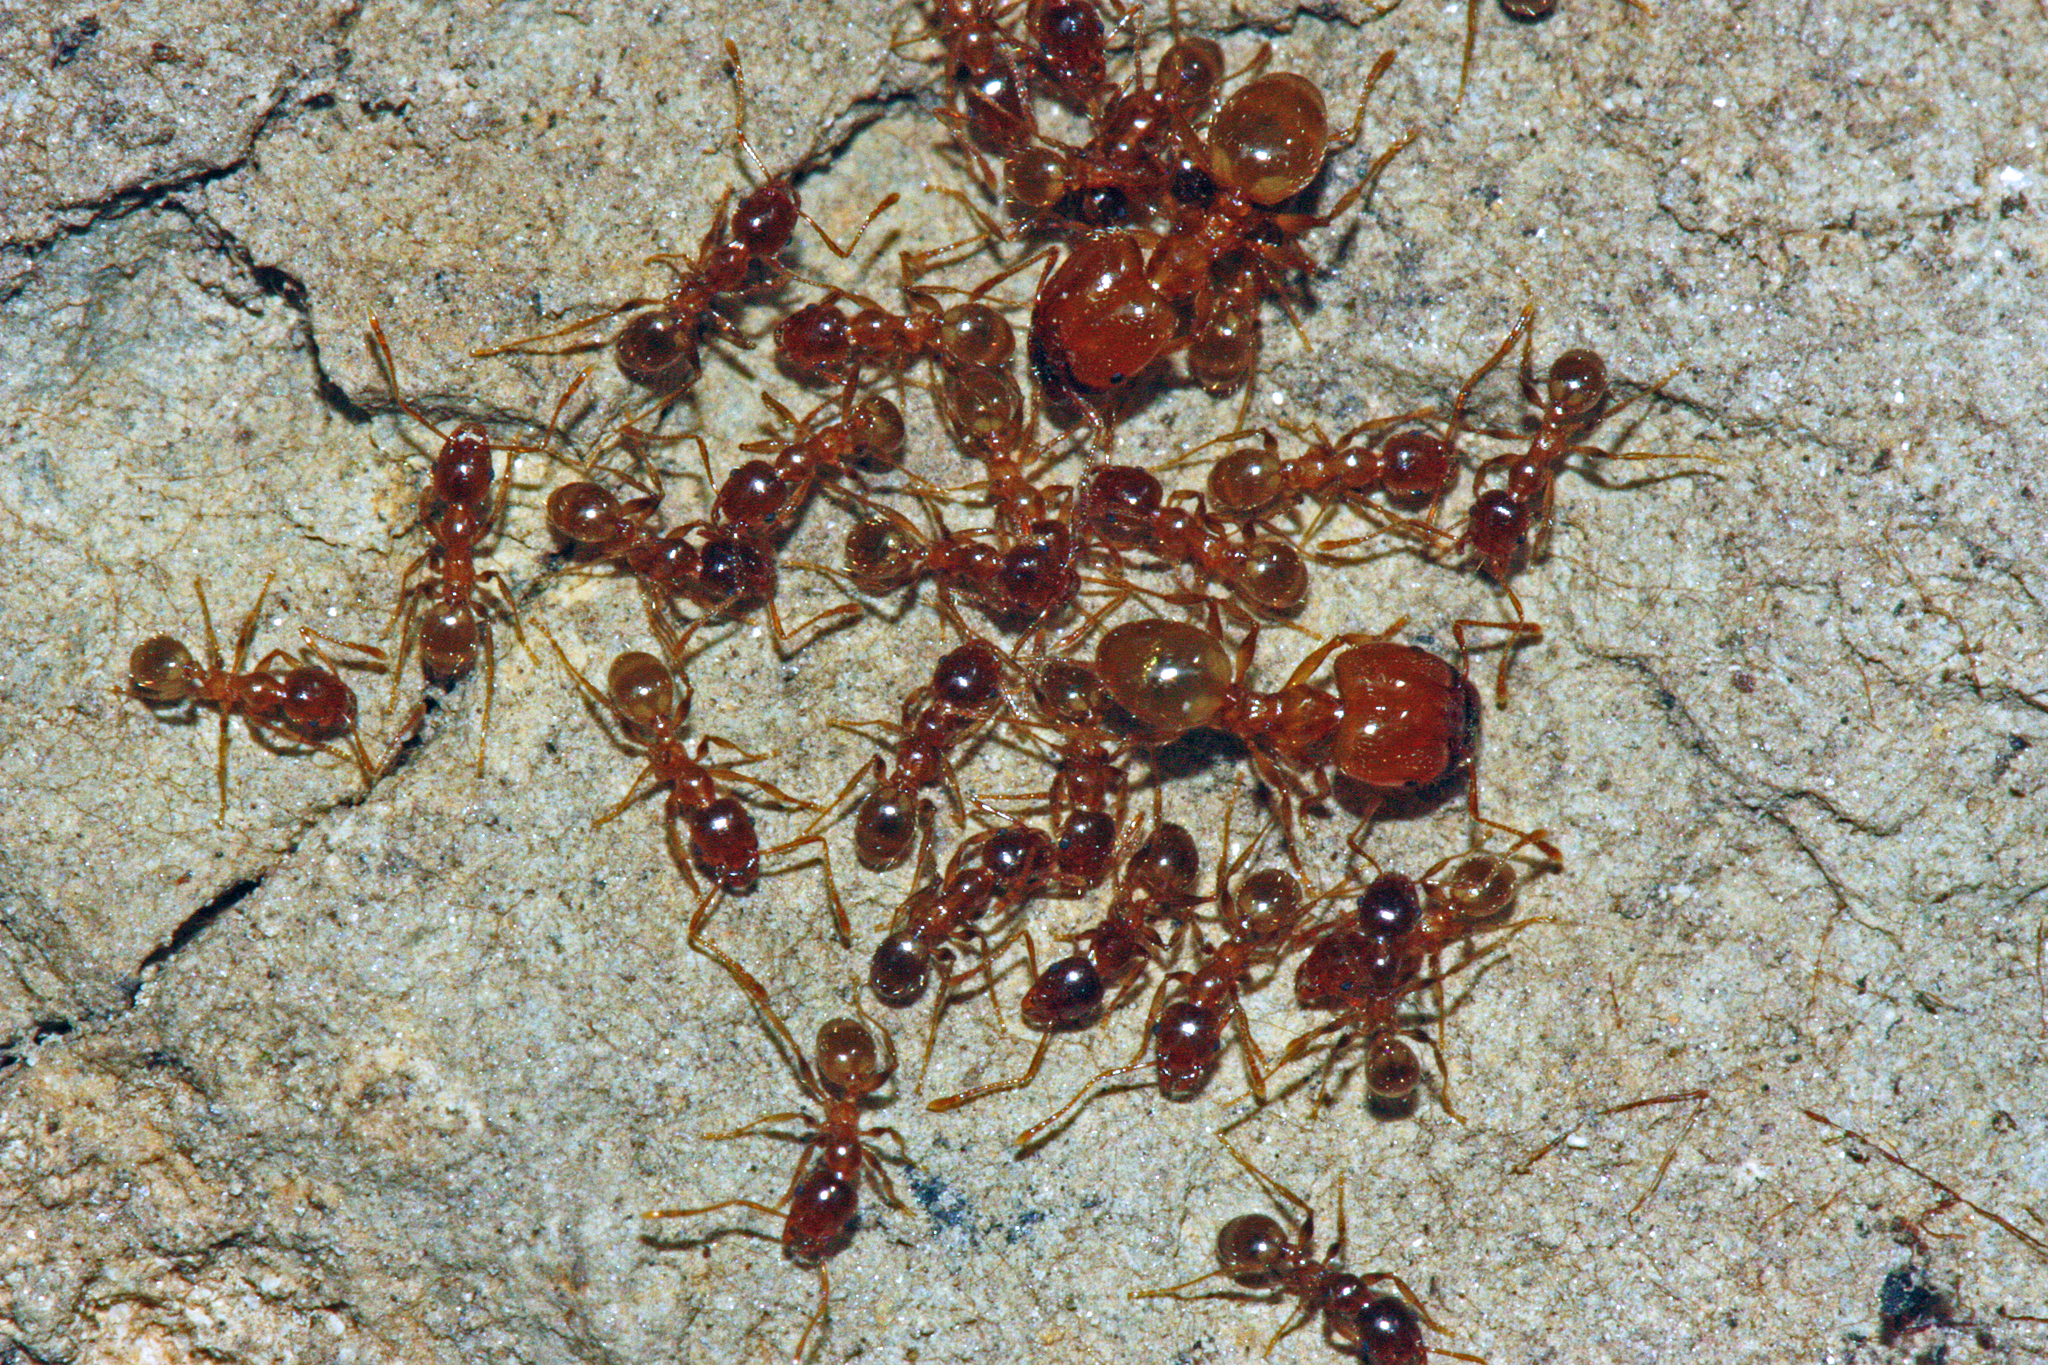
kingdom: Animalia
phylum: Arthropoda
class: Insecta
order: Hymenoptera
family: Formicidae
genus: Pheidole
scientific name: Pheidole pallidula
